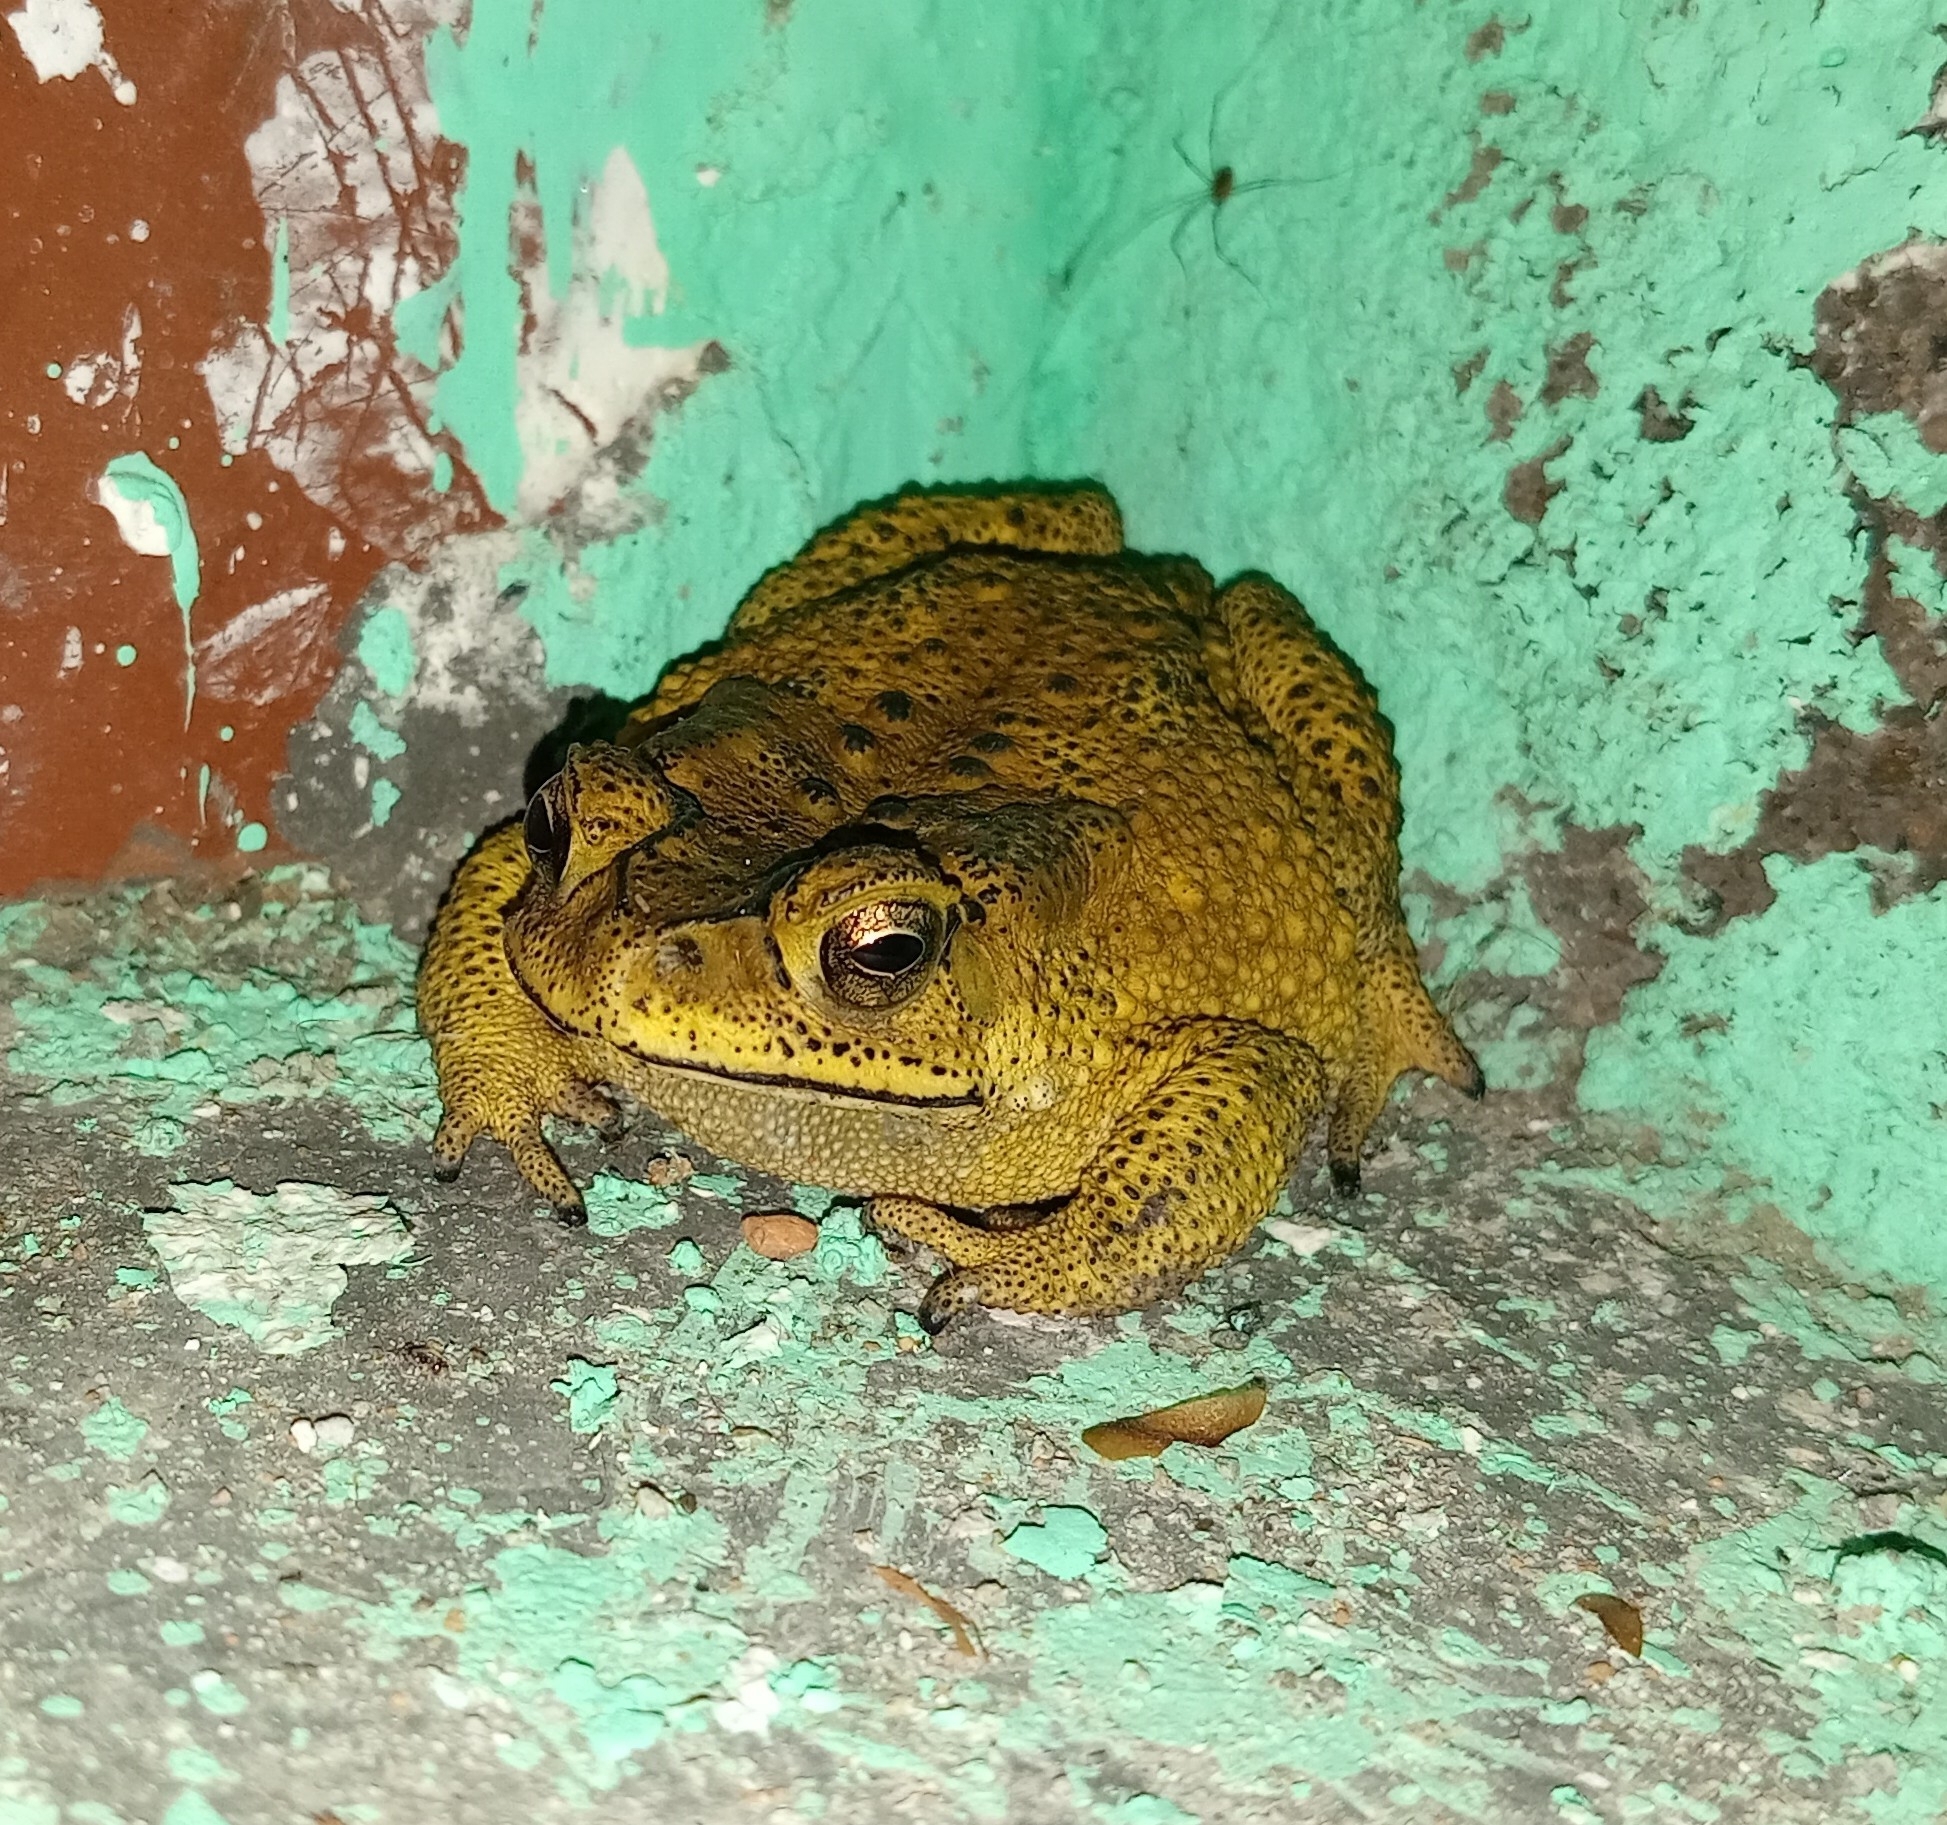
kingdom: Animalia
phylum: Chordata
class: Amphibia
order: Anura
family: Bufonidae
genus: Duttaphrynus
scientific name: Duttaphrynus melanostictus
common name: Common sunda toad
